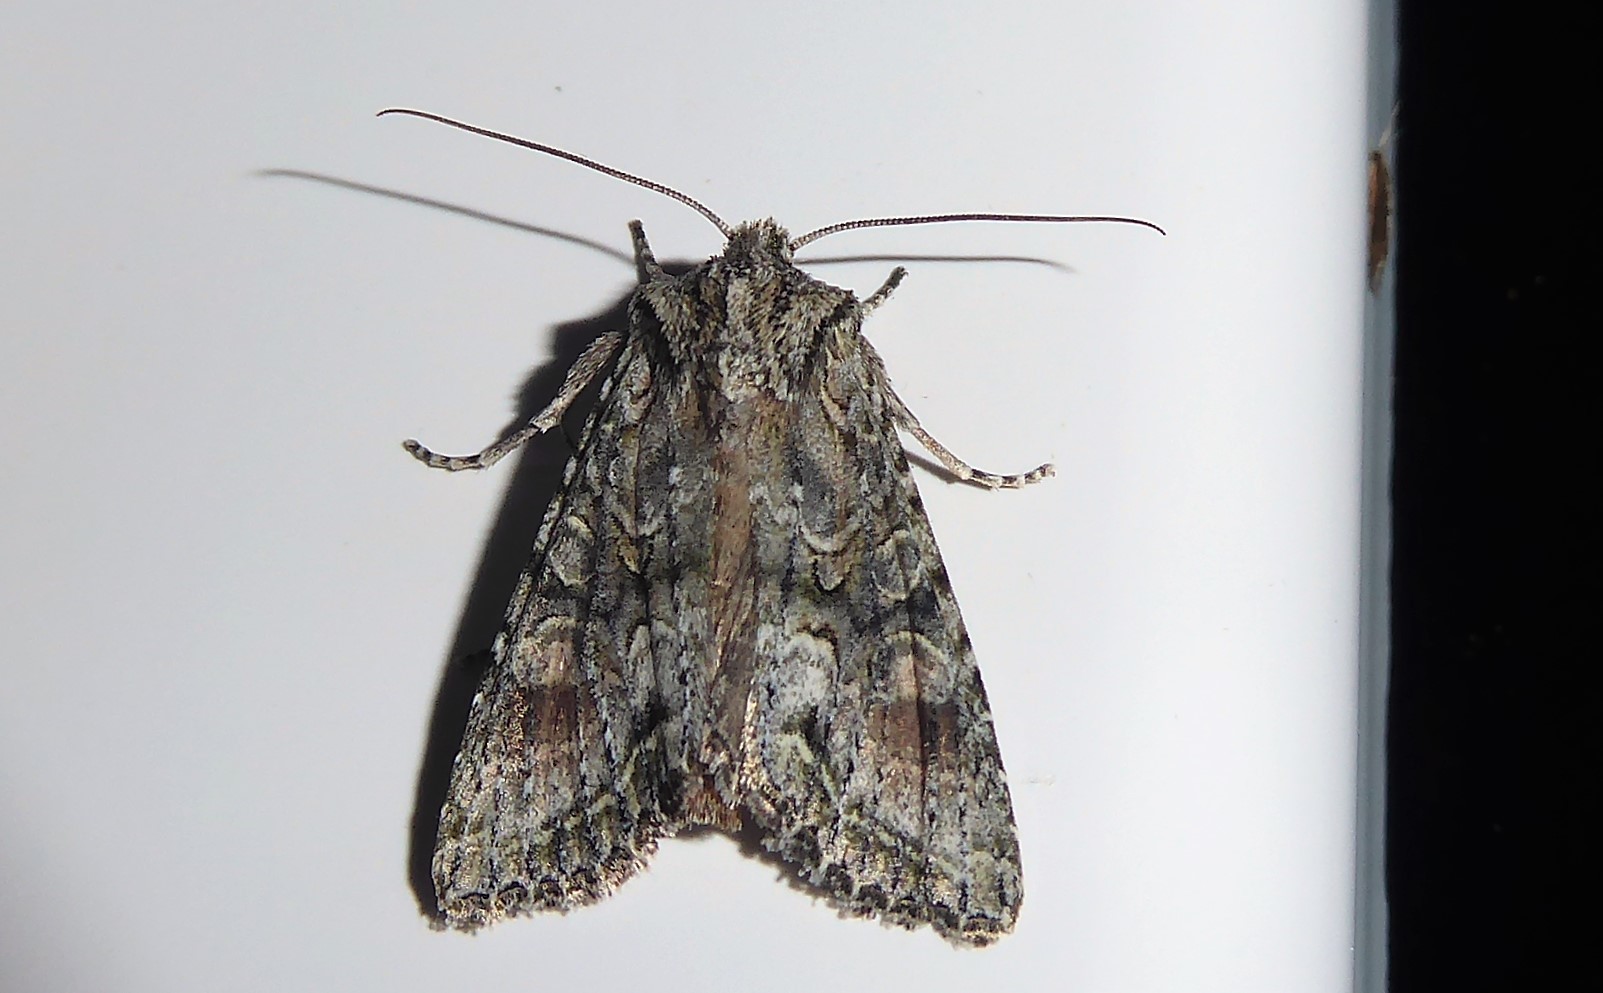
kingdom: Animalia
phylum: Arthropoda
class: Insecta
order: Lepidoptera
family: Noctuidae
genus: Ichneutica
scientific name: Ichneutica mutans
